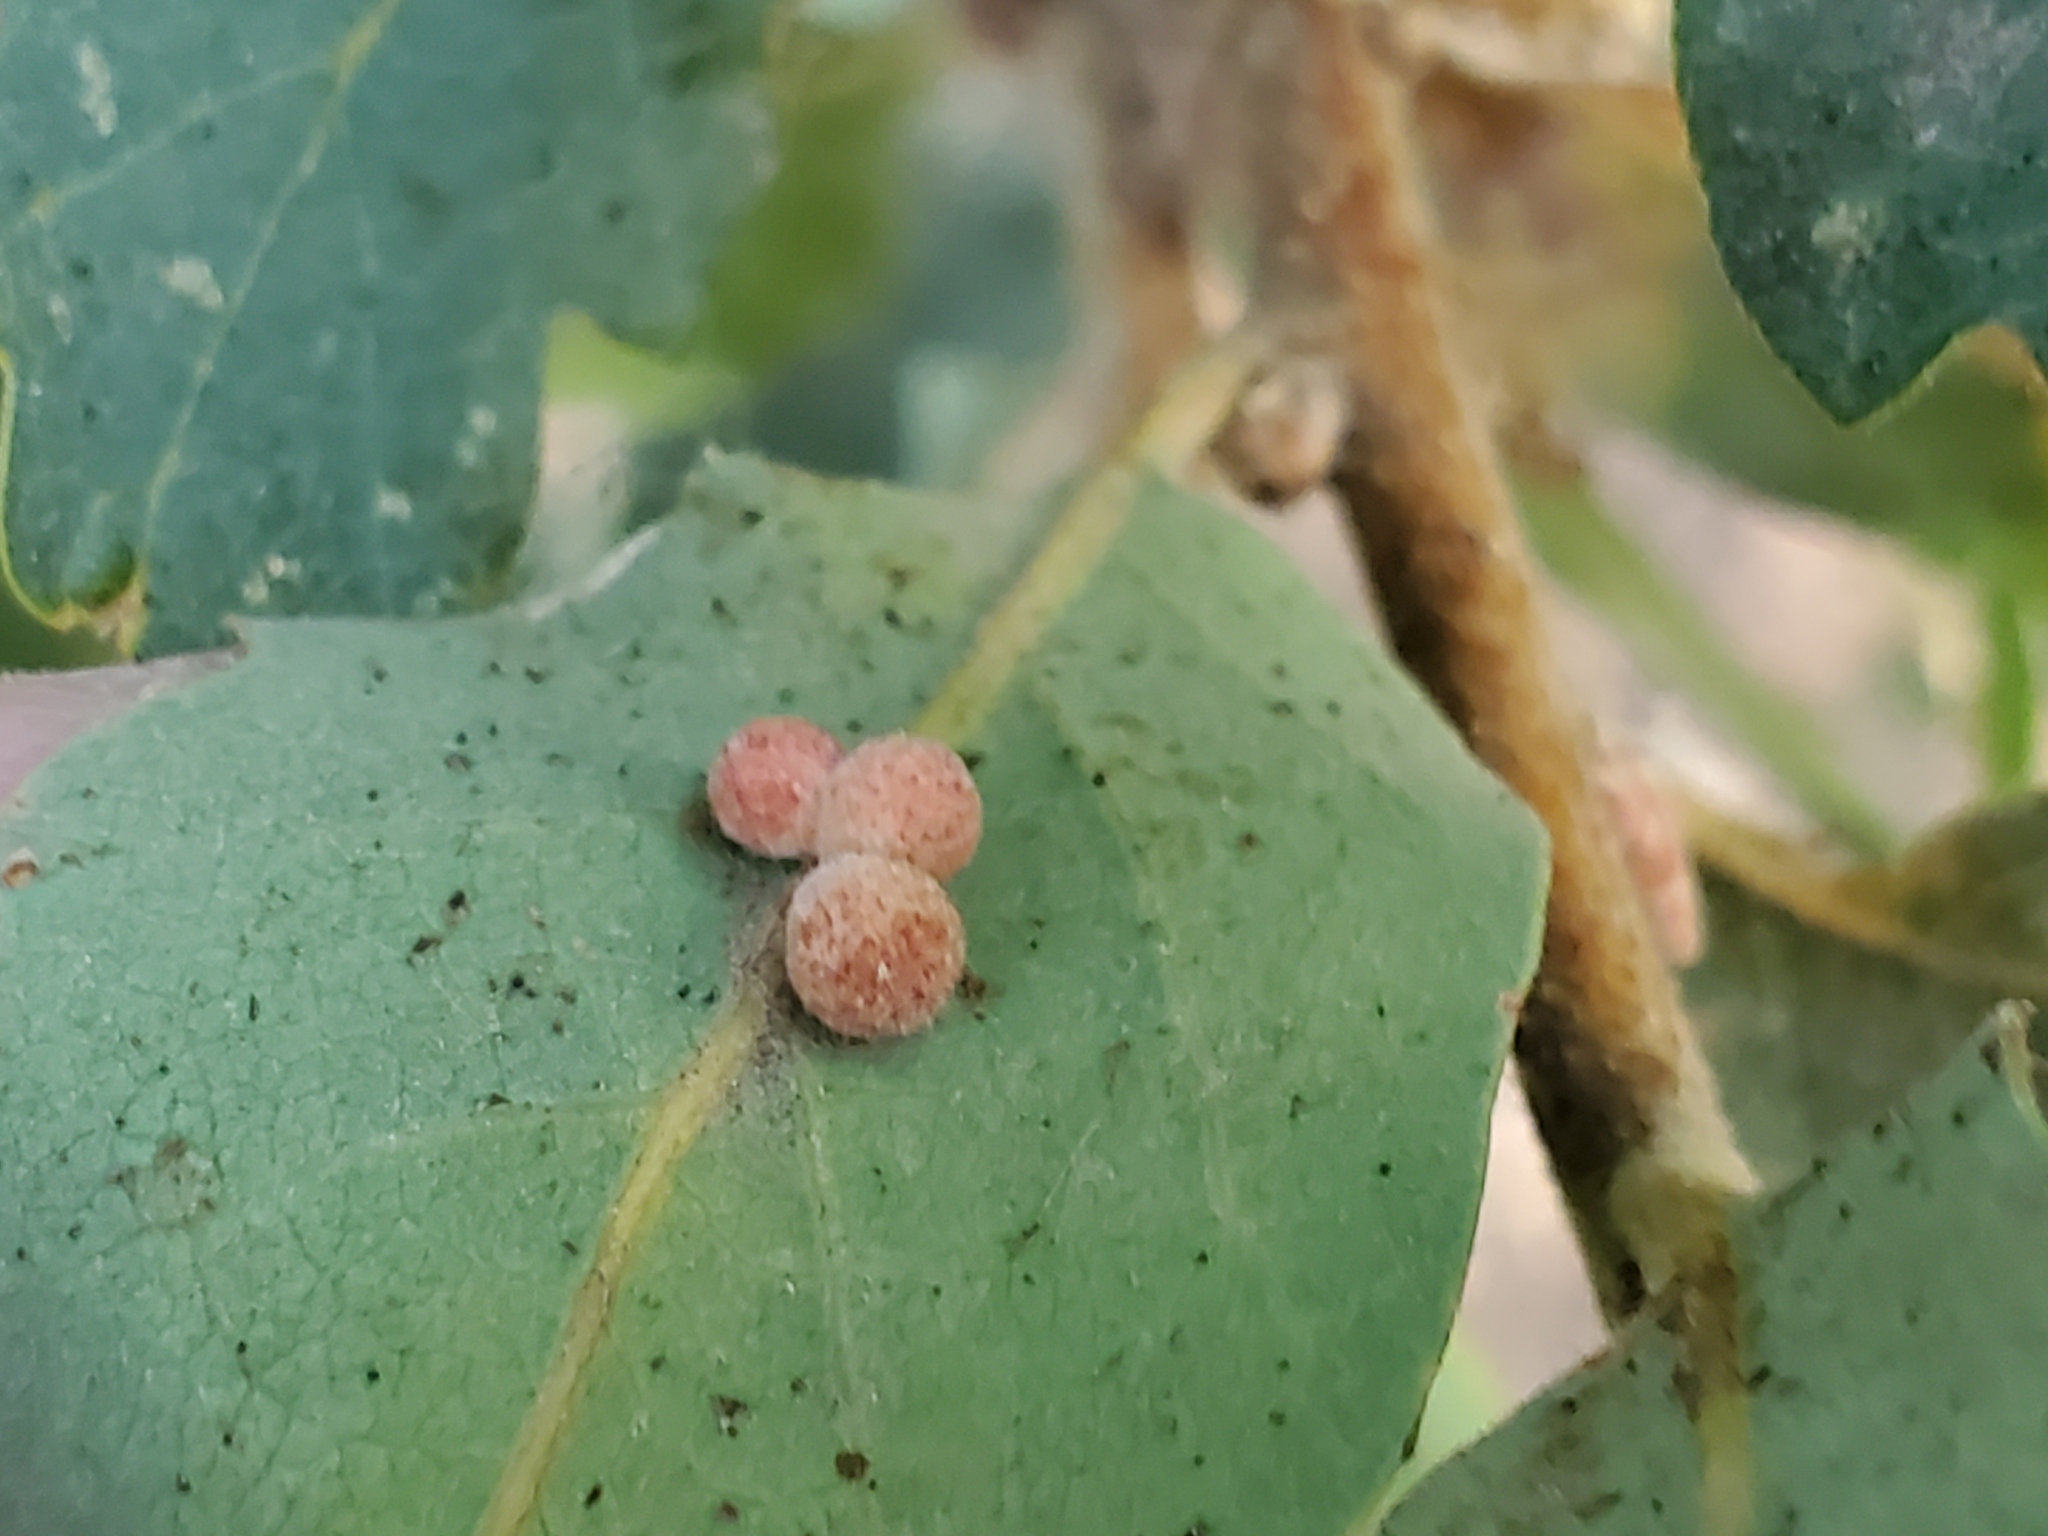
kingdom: Animalia
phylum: Arthropoda
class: Insecta
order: Hymenoptera
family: Cynipidae
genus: Andricus
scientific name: Andricus
